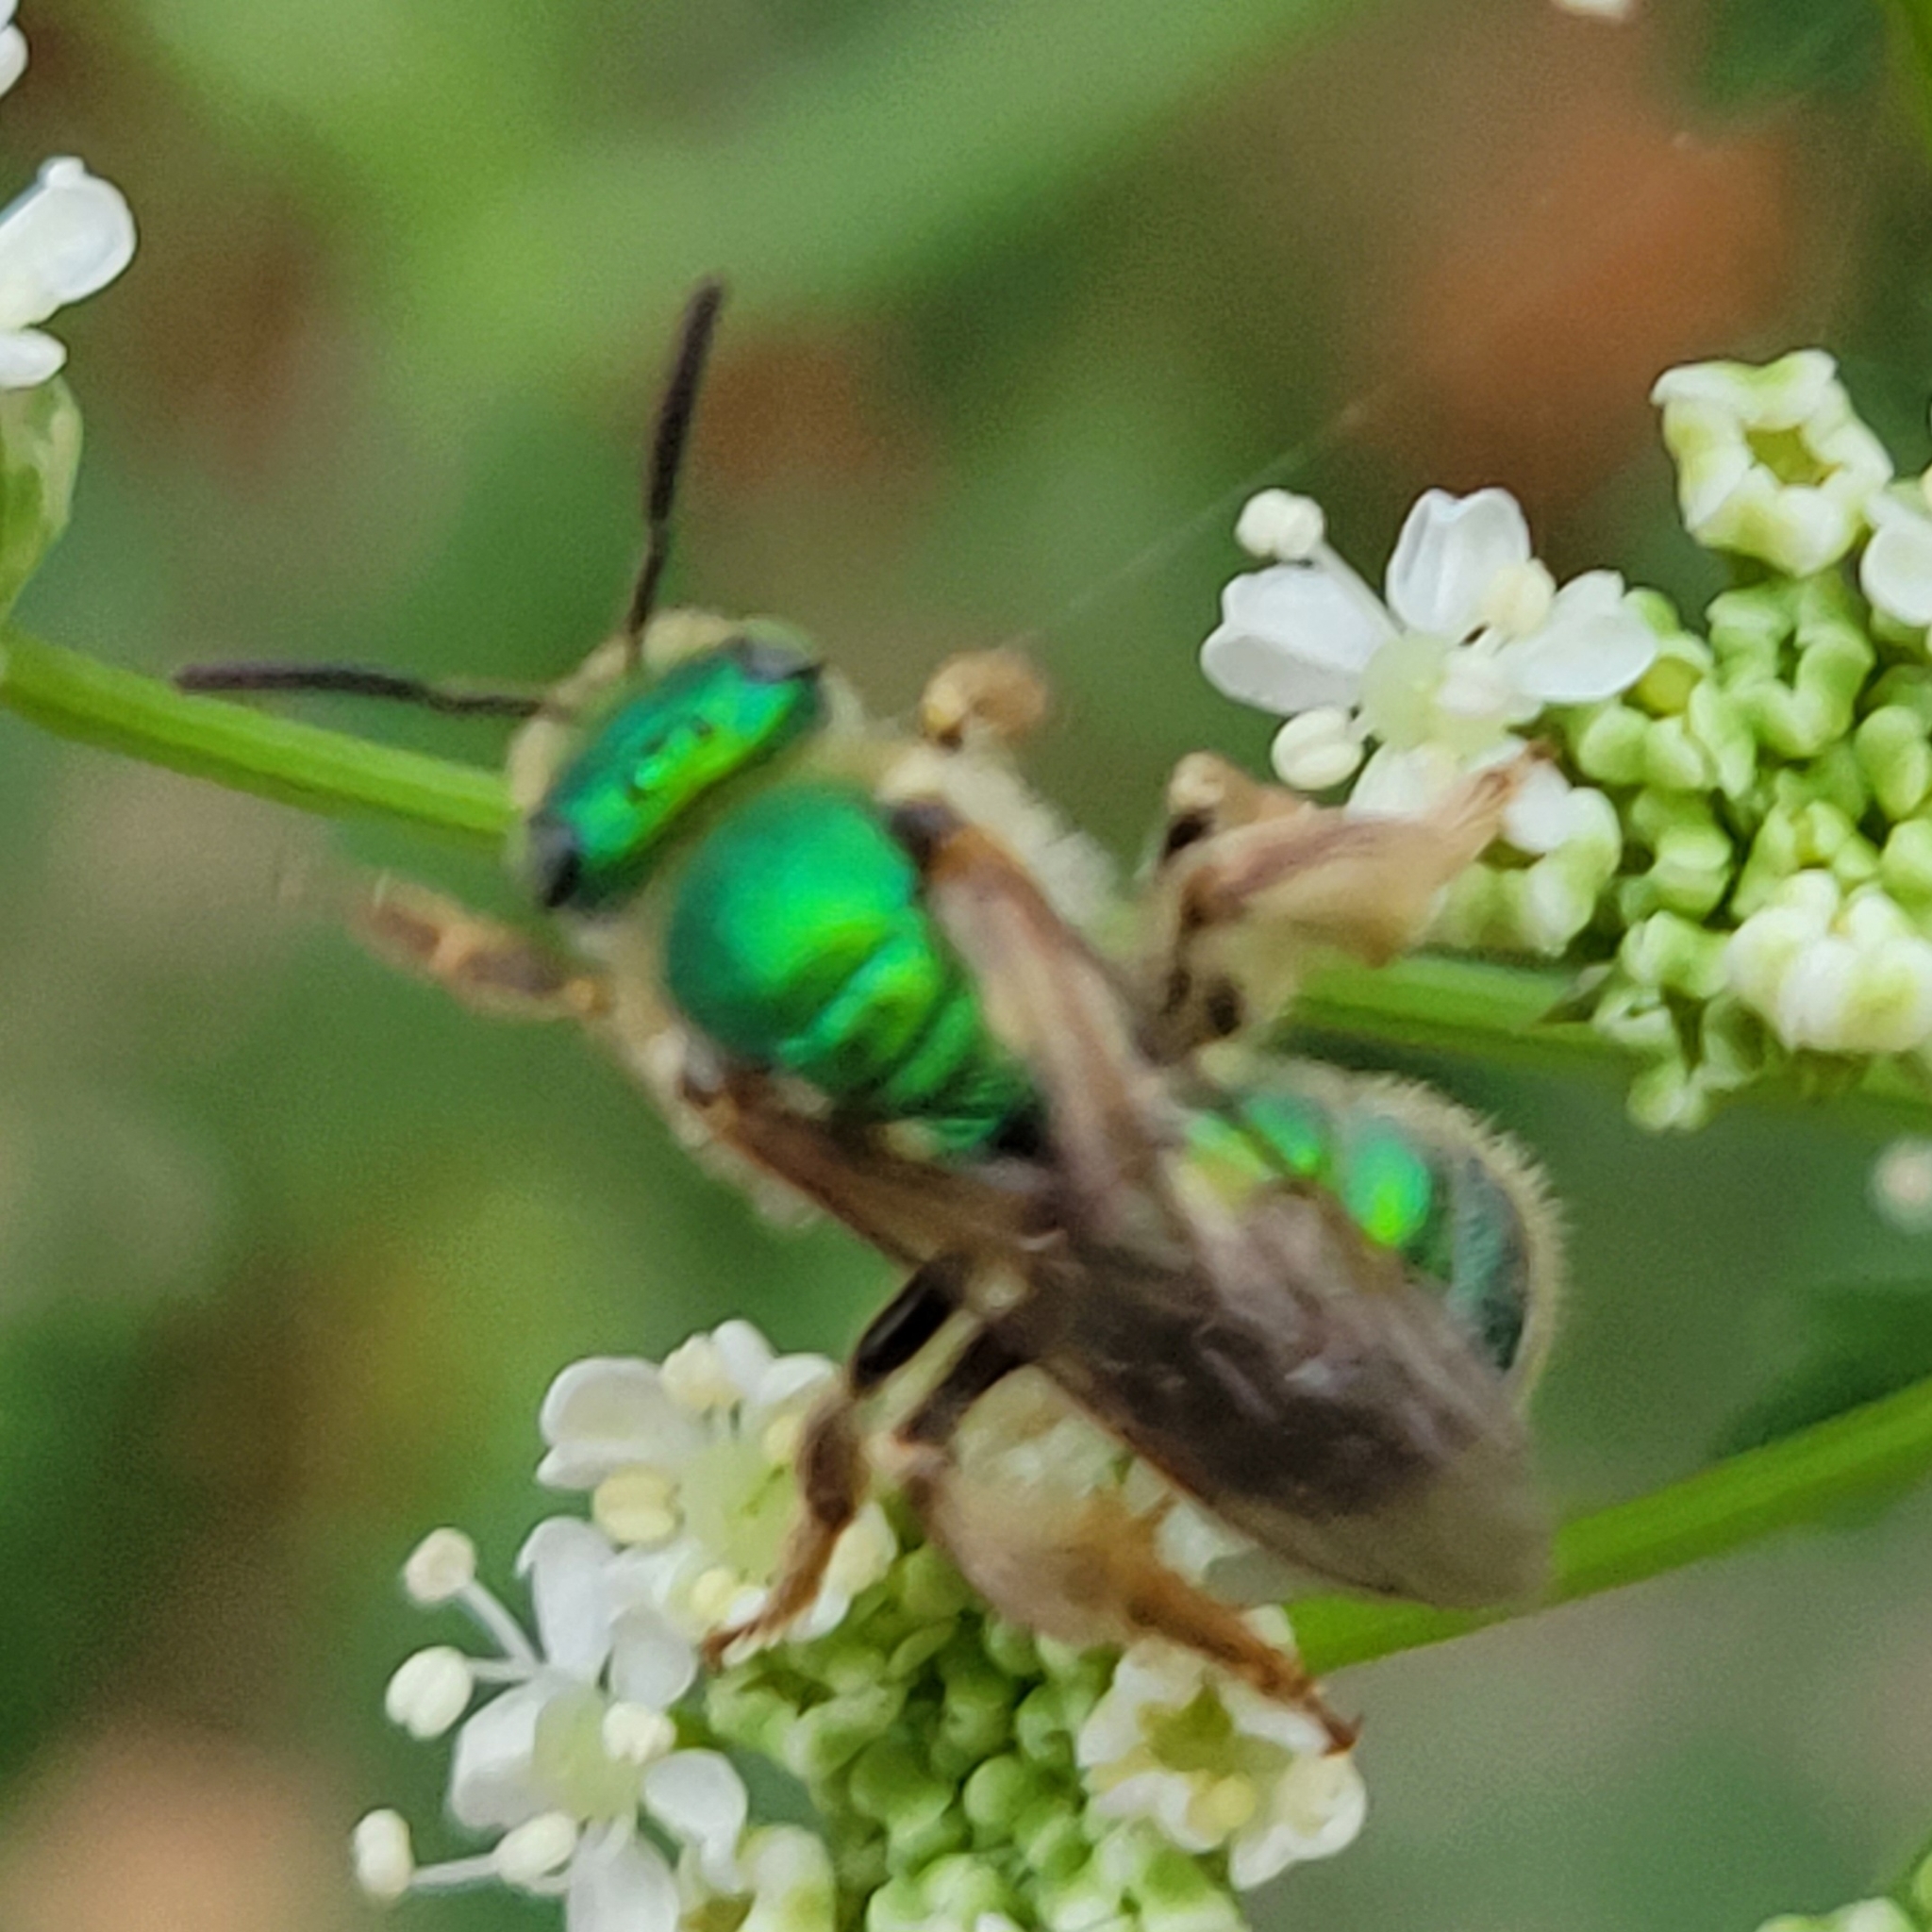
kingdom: Animalia
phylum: Arthropoda
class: Insecta
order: Hymenoptera
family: Halictidae
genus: Agapostemon
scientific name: Agapostemon texanus
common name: Texas striped sweat bee
